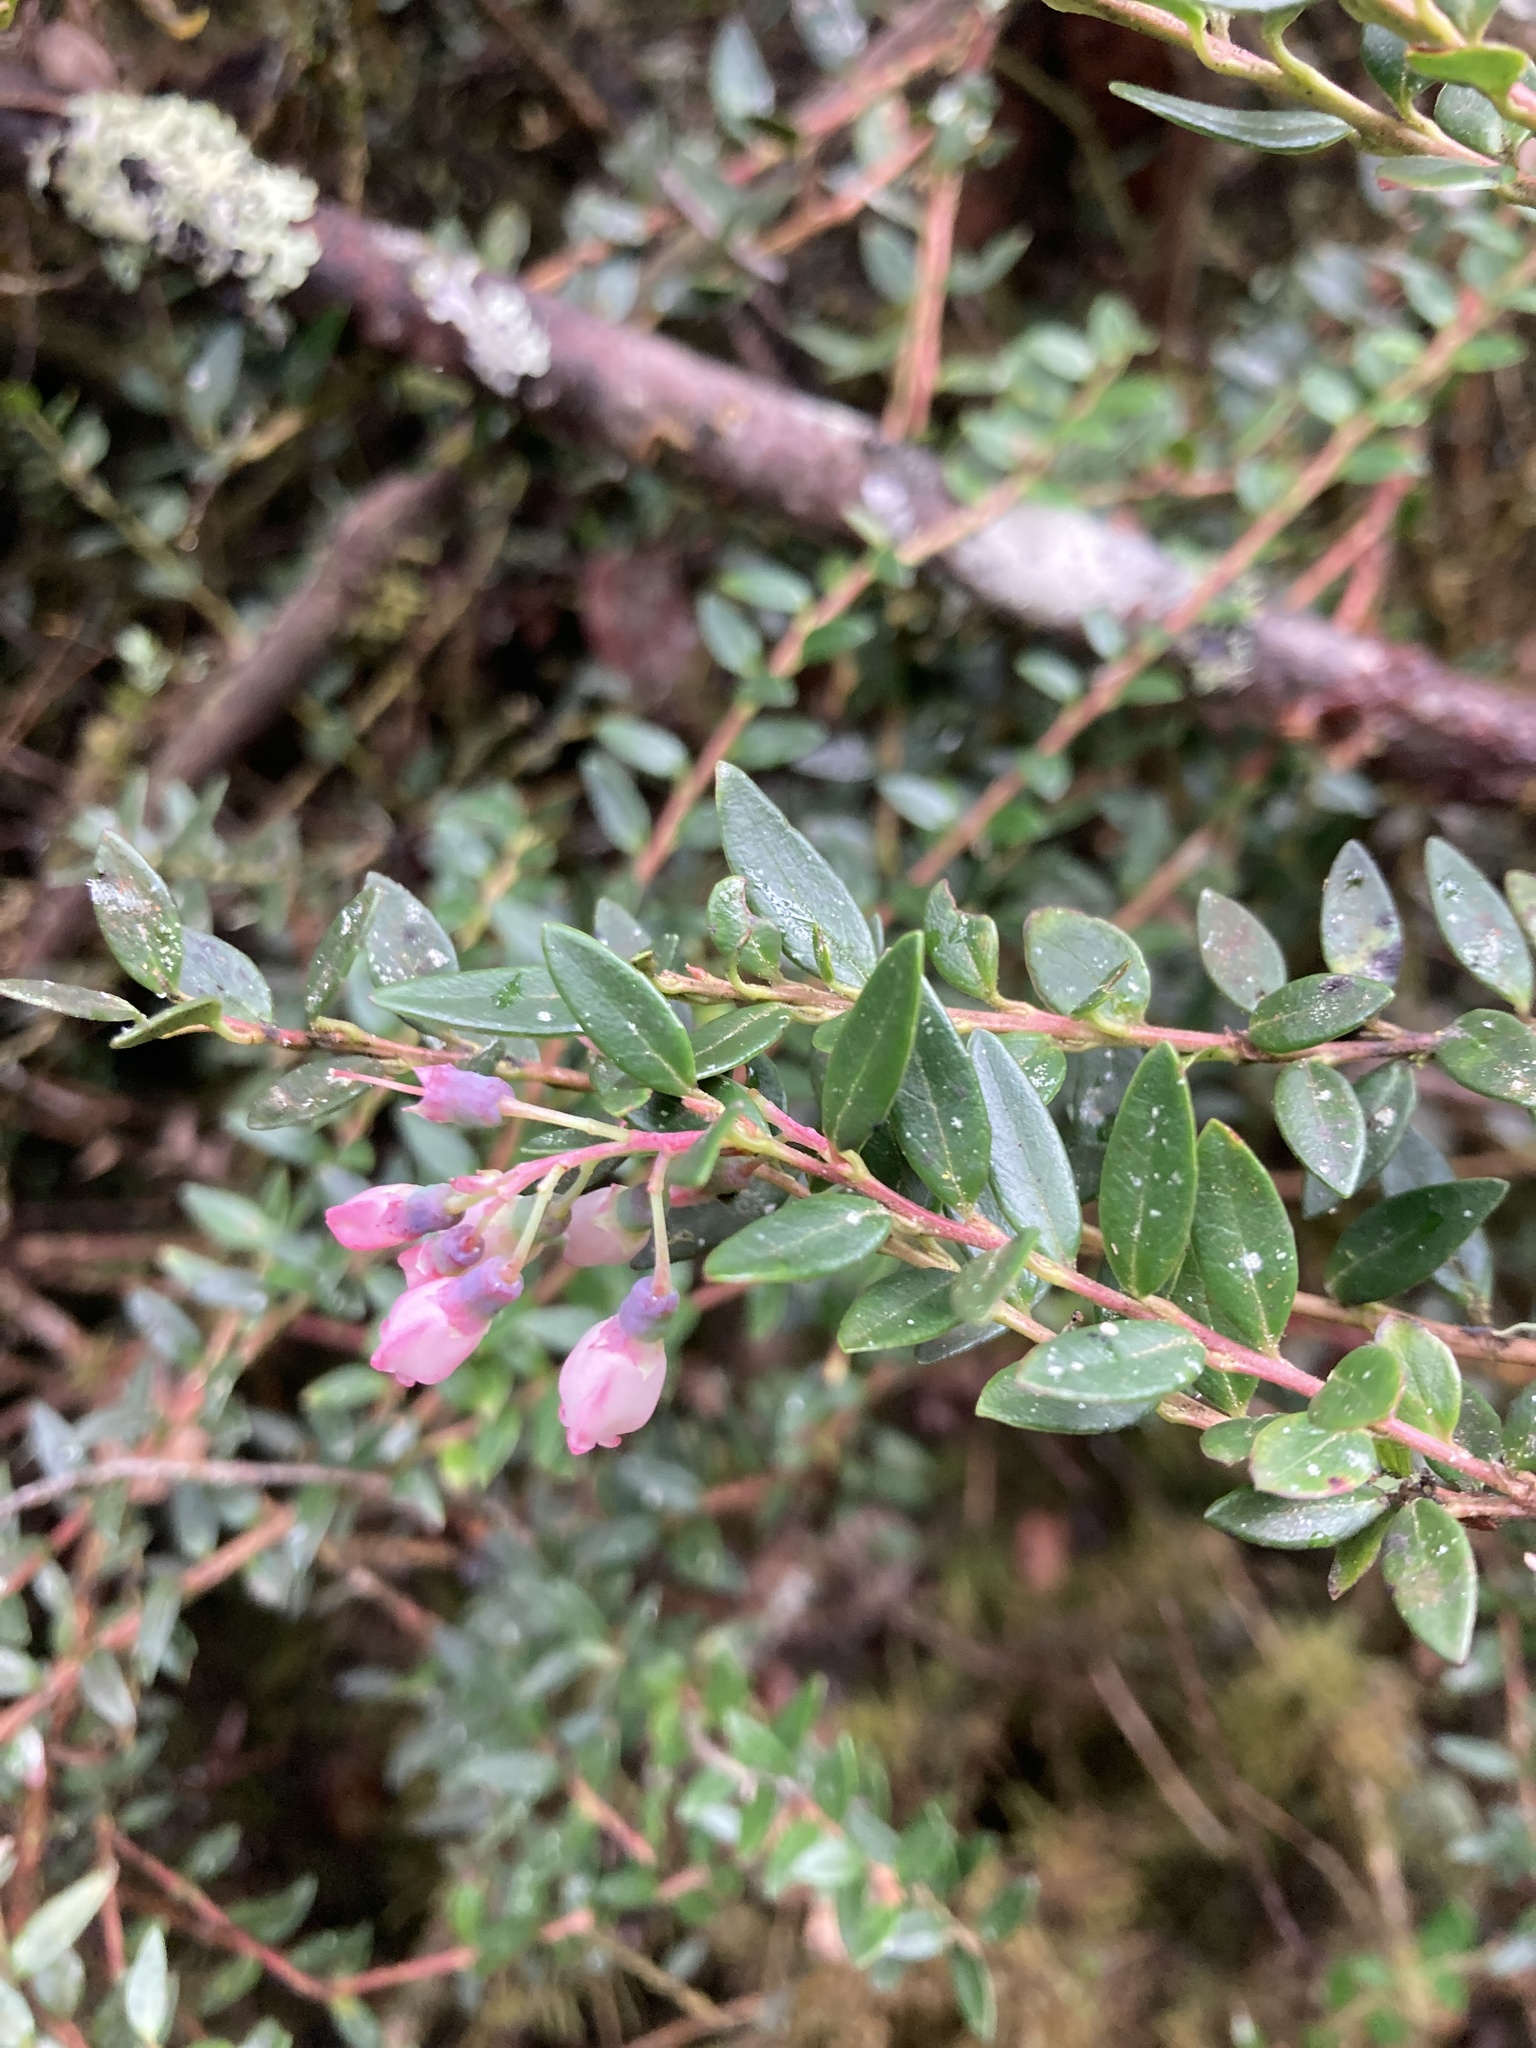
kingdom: Plantae
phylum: Tracheophyta
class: Magnoliopsida
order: Ericales
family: Ericaceae
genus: Vaccinium
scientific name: Vaccinium floribundum
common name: Colombian blueberry
